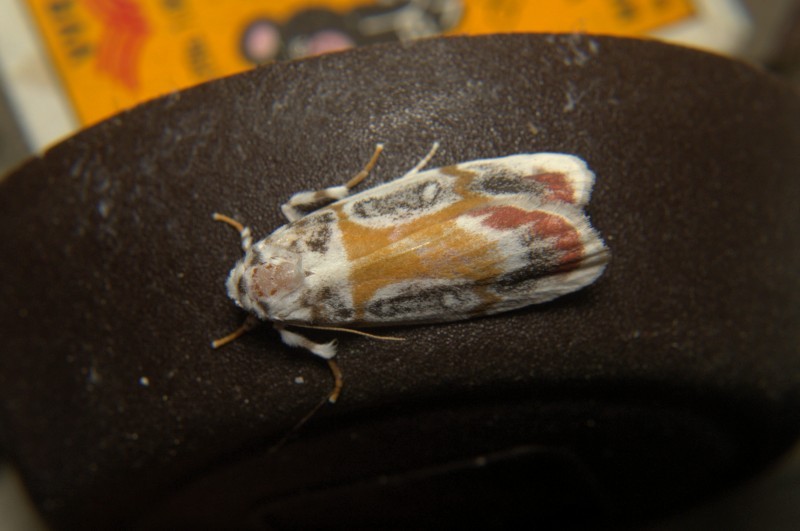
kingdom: Animalia
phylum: Arthropoda
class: Insecta
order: Lepidoptera
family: Erebidae
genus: Cyana
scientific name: Cyana gelida
